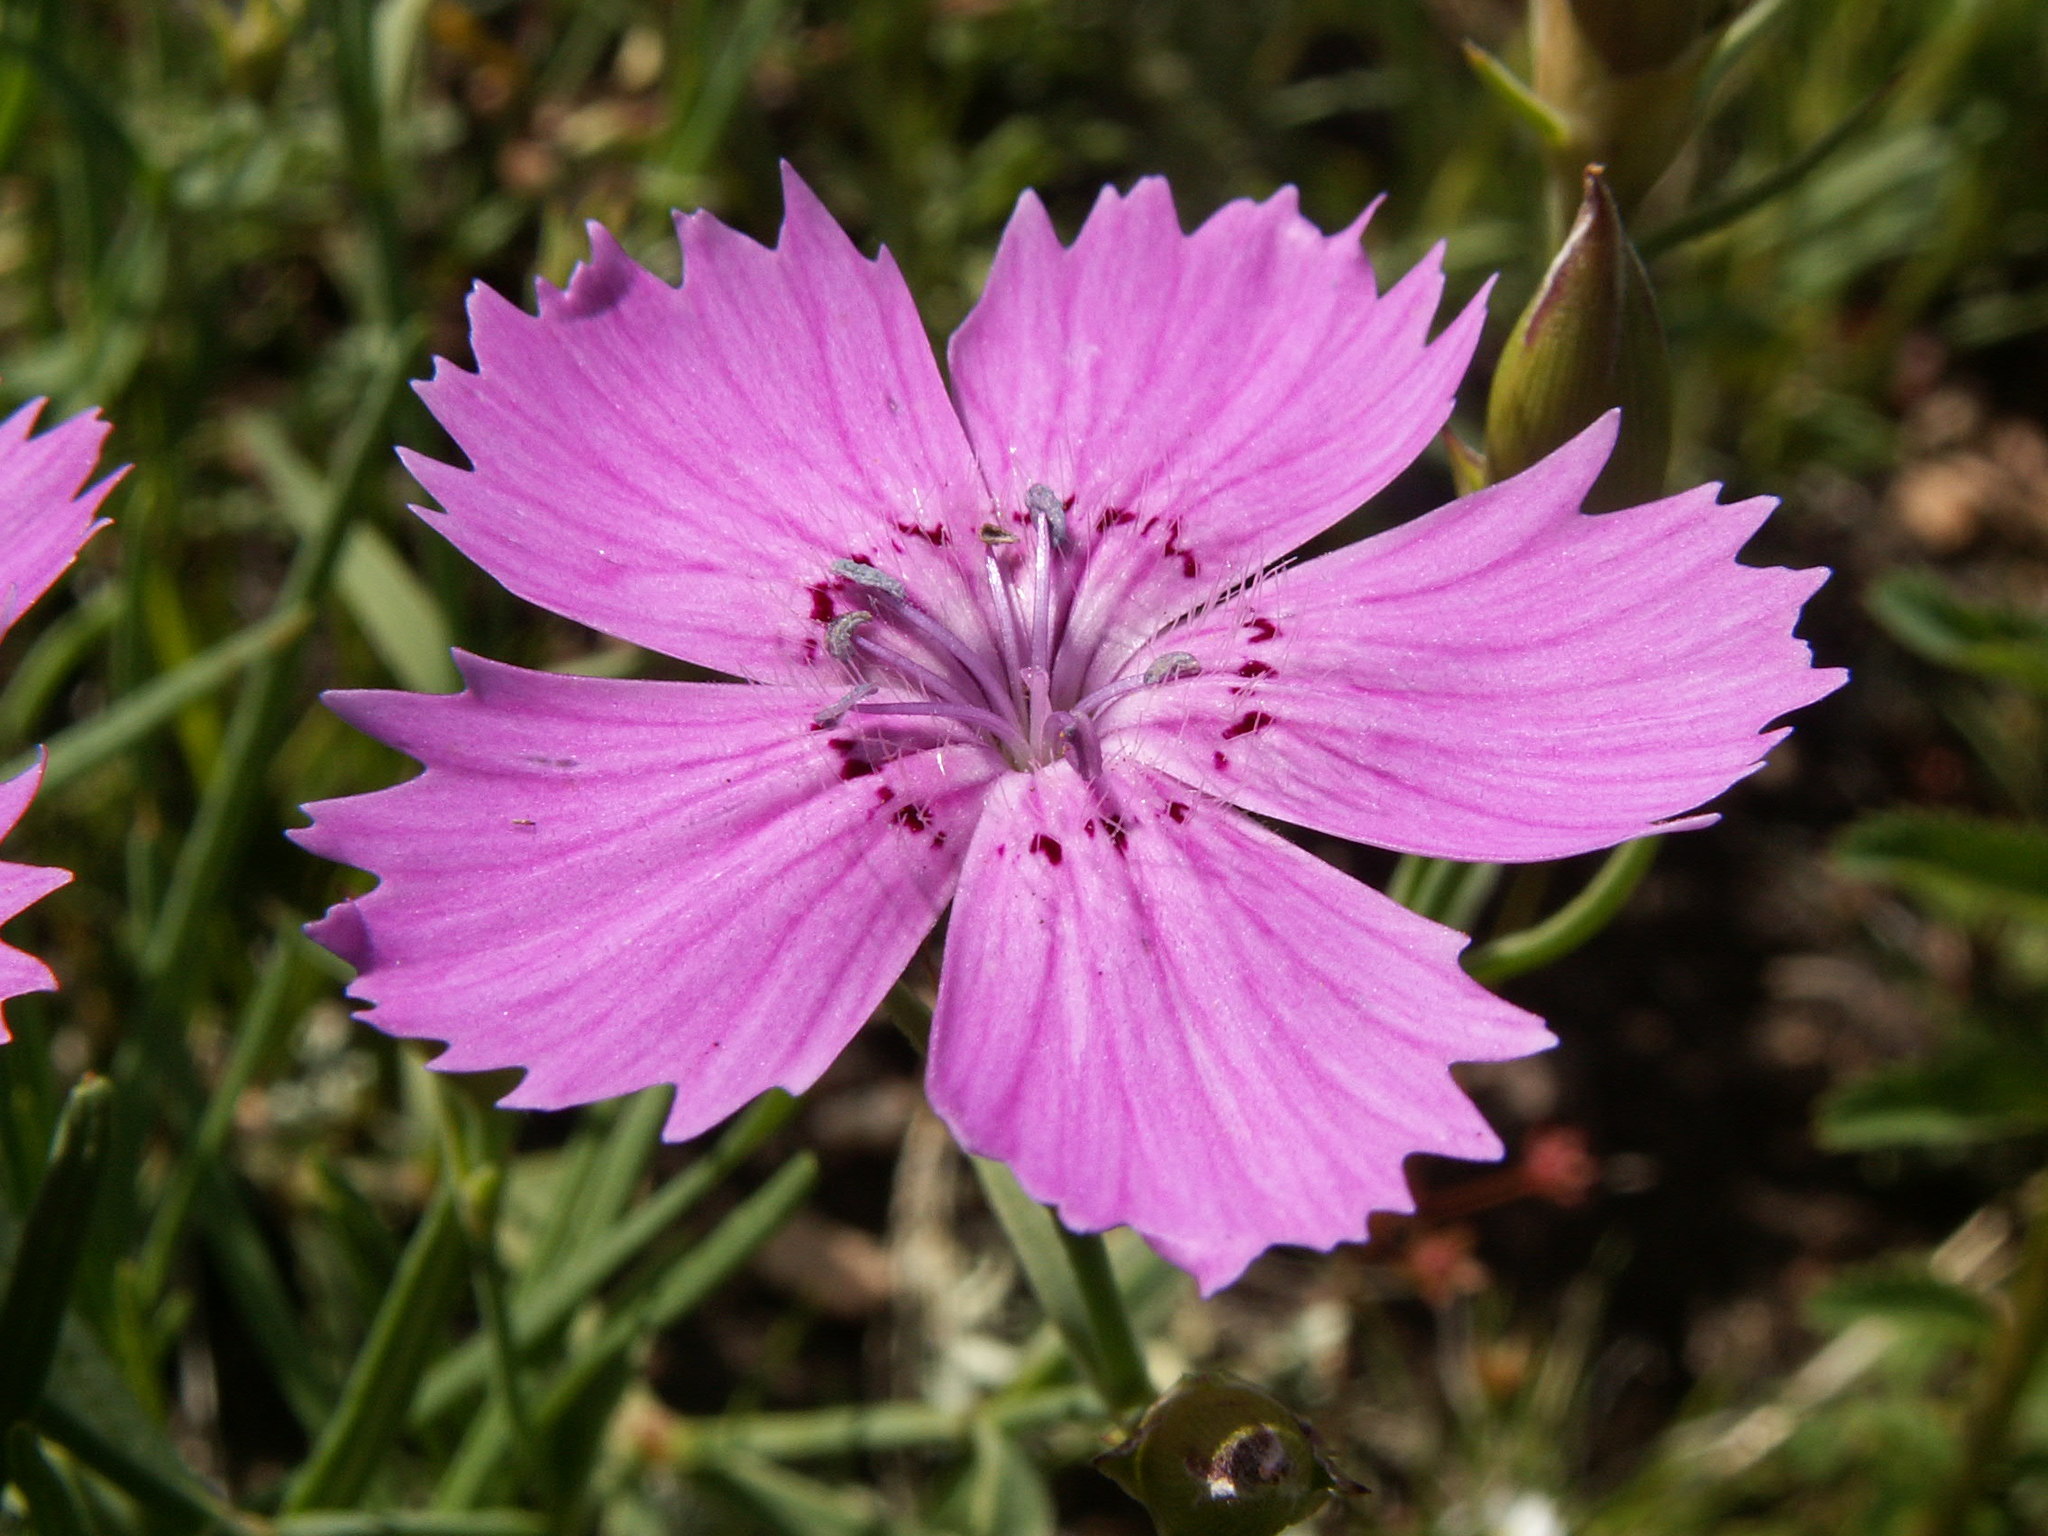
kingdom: Plantae
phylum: Tracheophyta
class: Magnoliopsida
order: Caryophyllales
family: Caryophyllaceae
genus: Dianthus
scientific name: Dianthus chinensis
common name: Rainbow pink
